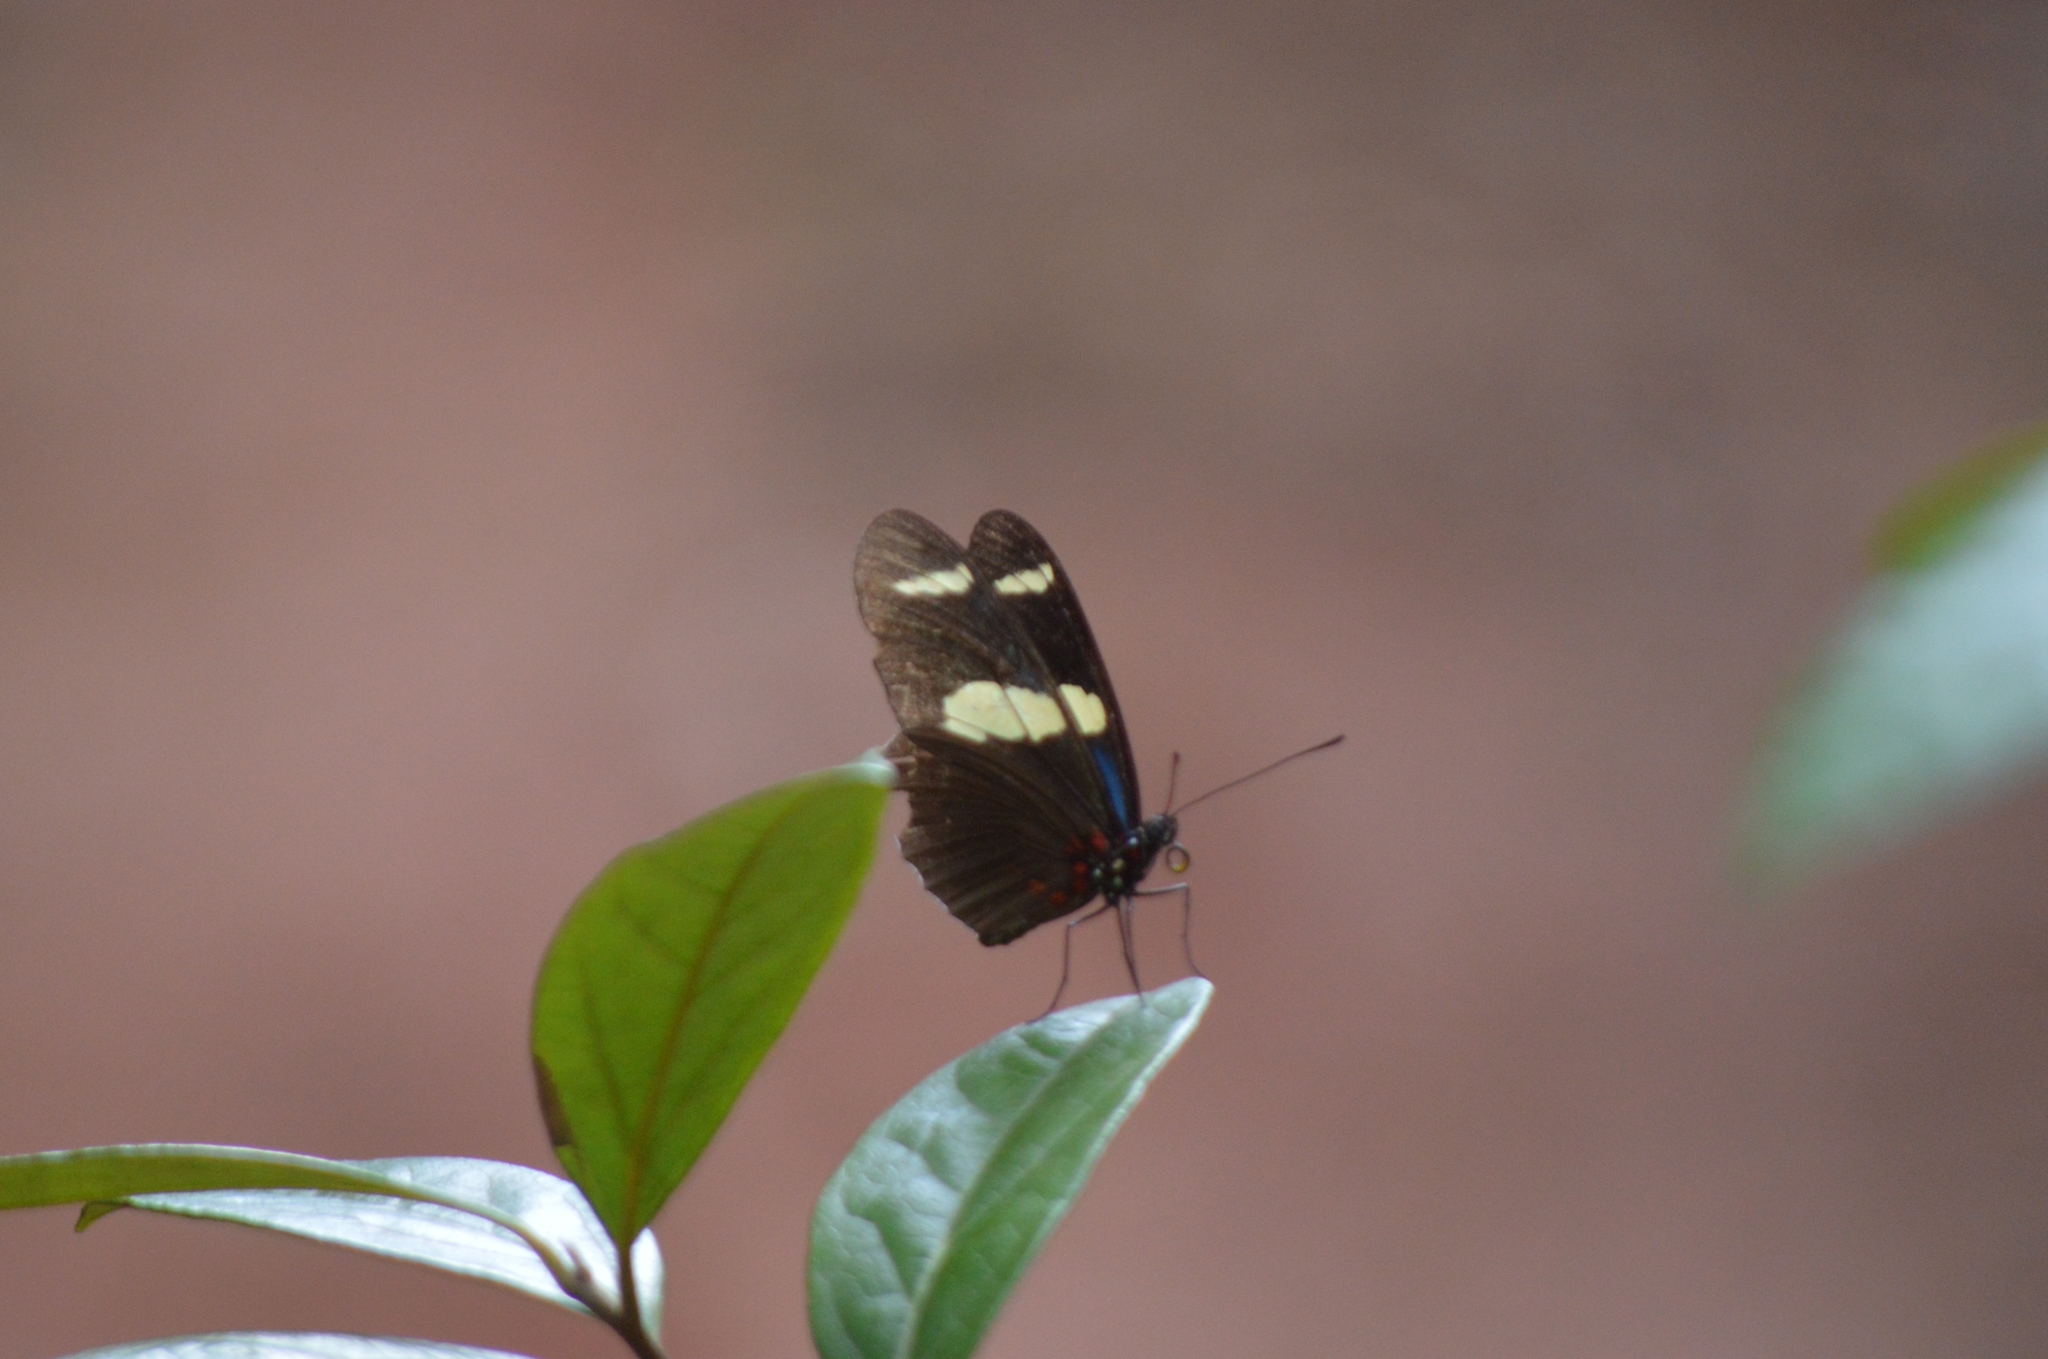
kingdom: Animalia
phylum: Arthropoda
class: Insecta
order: Lepidoptera
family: Nymphalidae
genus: Heliconius
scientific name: Heliconius sara
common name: Sara longwing
